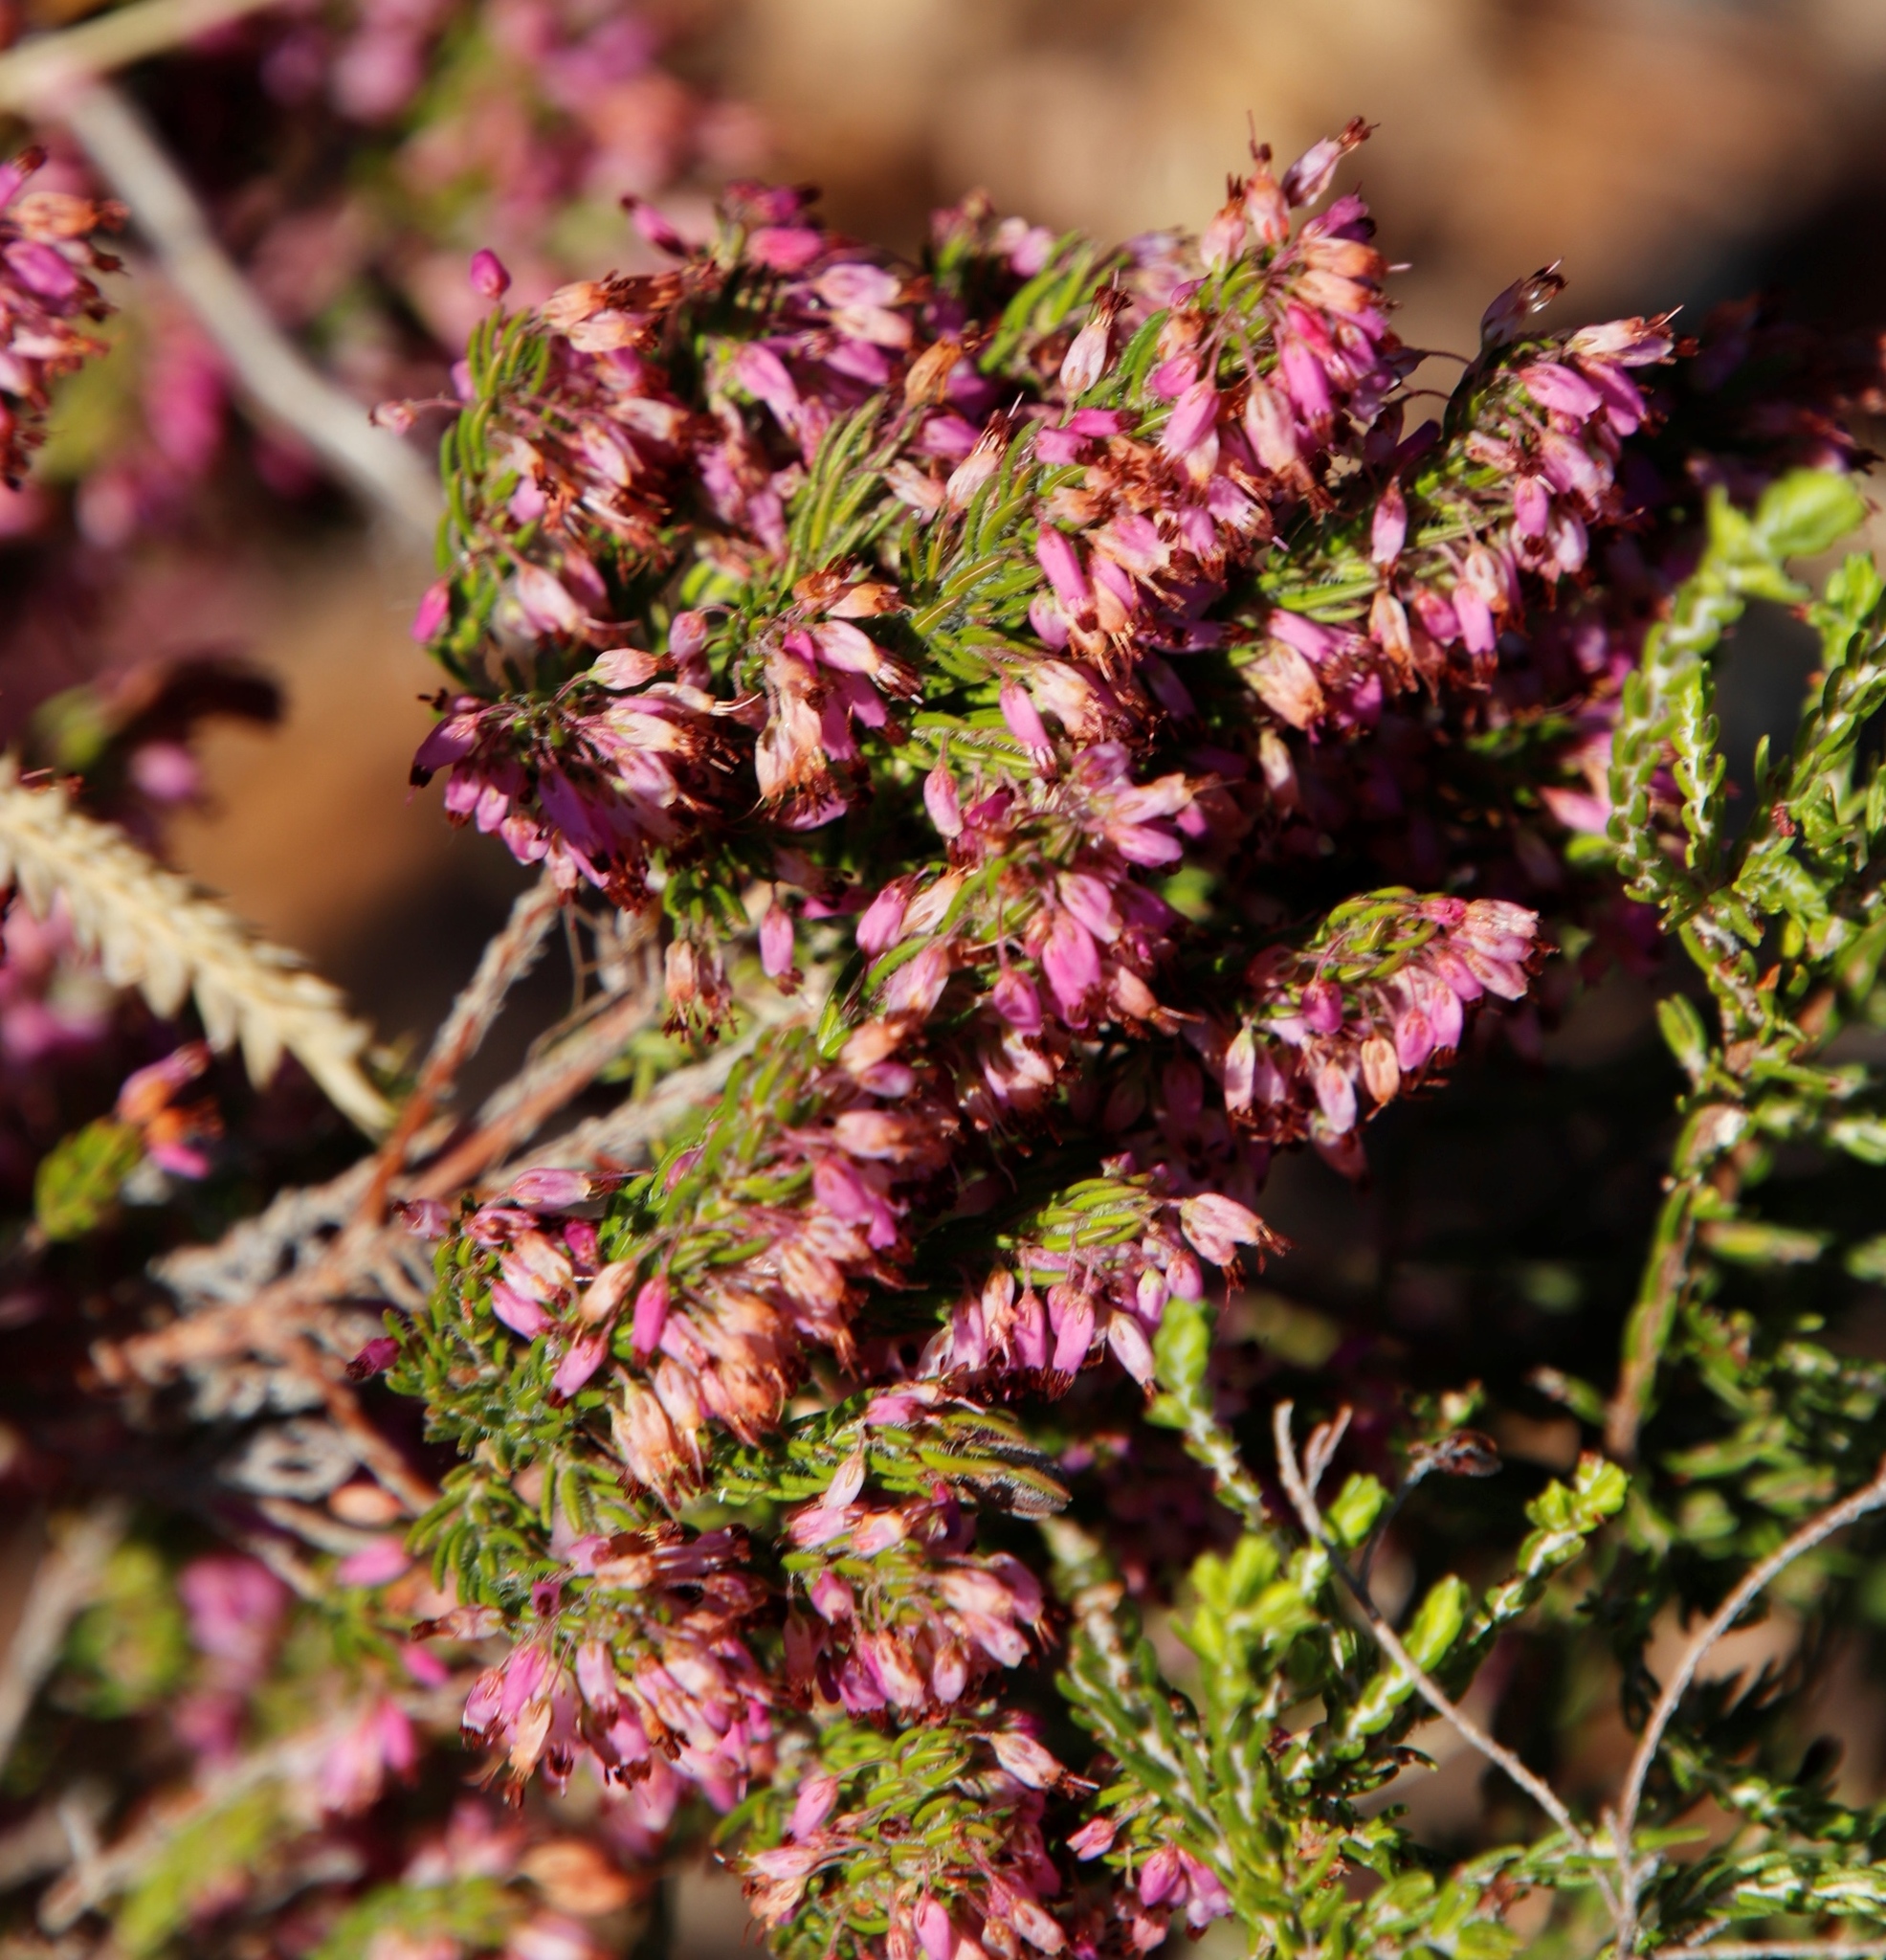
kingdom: Plantae
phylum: Tracheophyta
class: Magnoliopsida
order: Ericales
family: Ericaceae
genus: Erica
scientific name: Erica nudiflora
